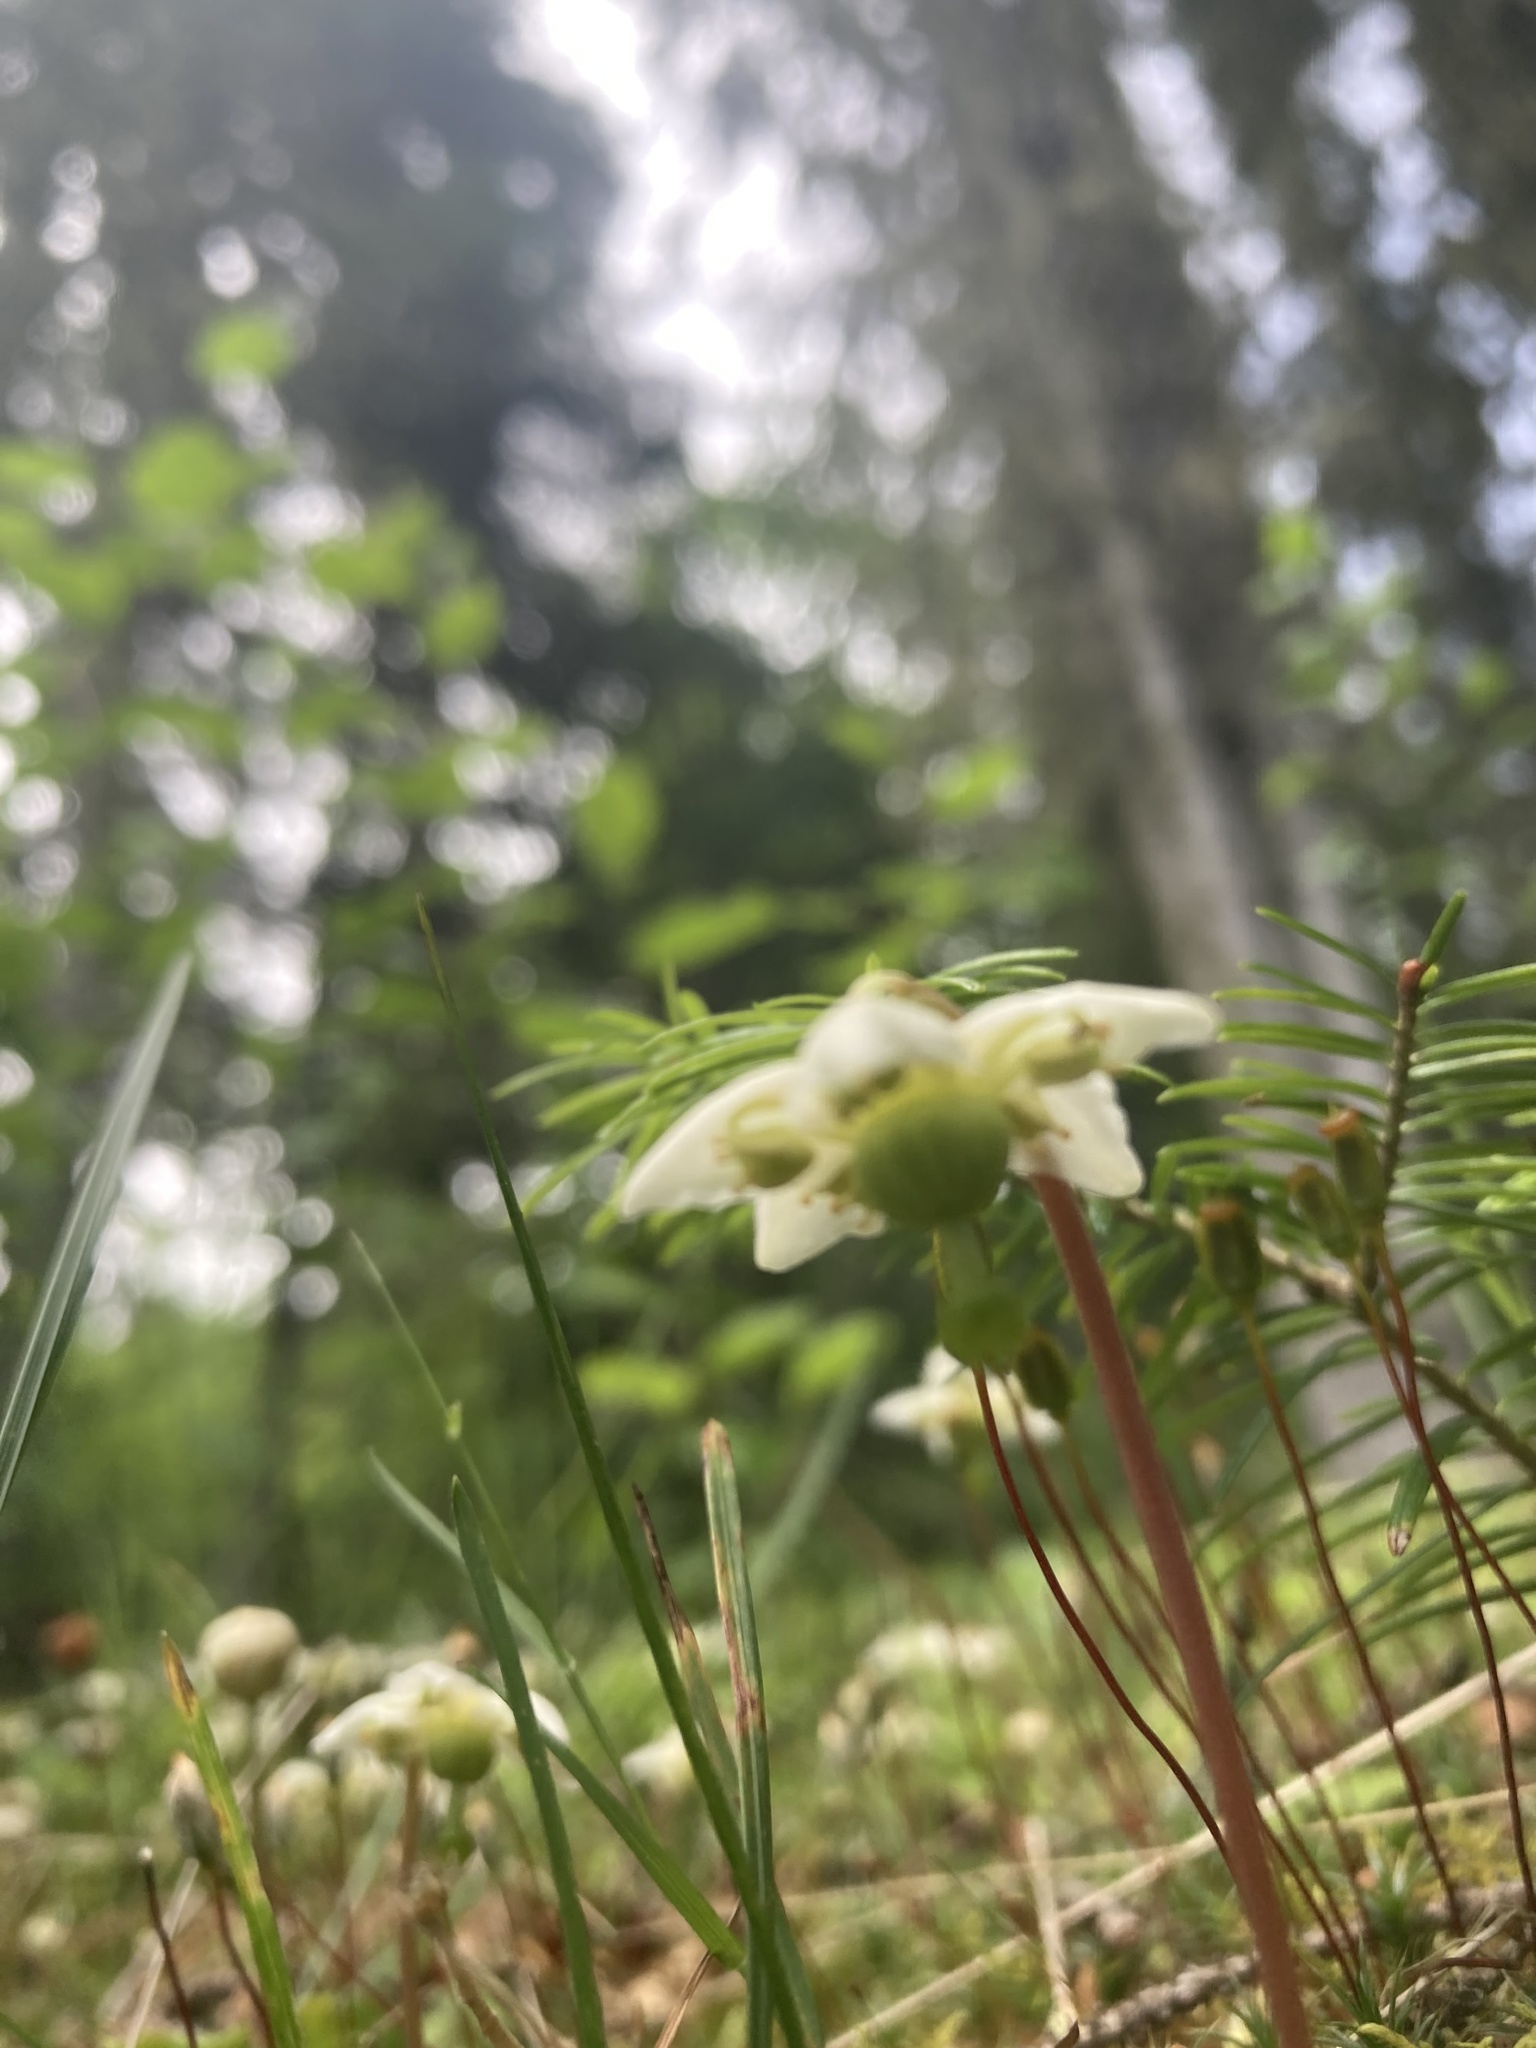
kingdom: Plantae
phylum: Tracheophyta
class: Magnoliopsida
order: Ericales
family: Ericaceae
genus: Moneses
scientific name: Moneses uniflora
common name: One-flowered wintergreen
